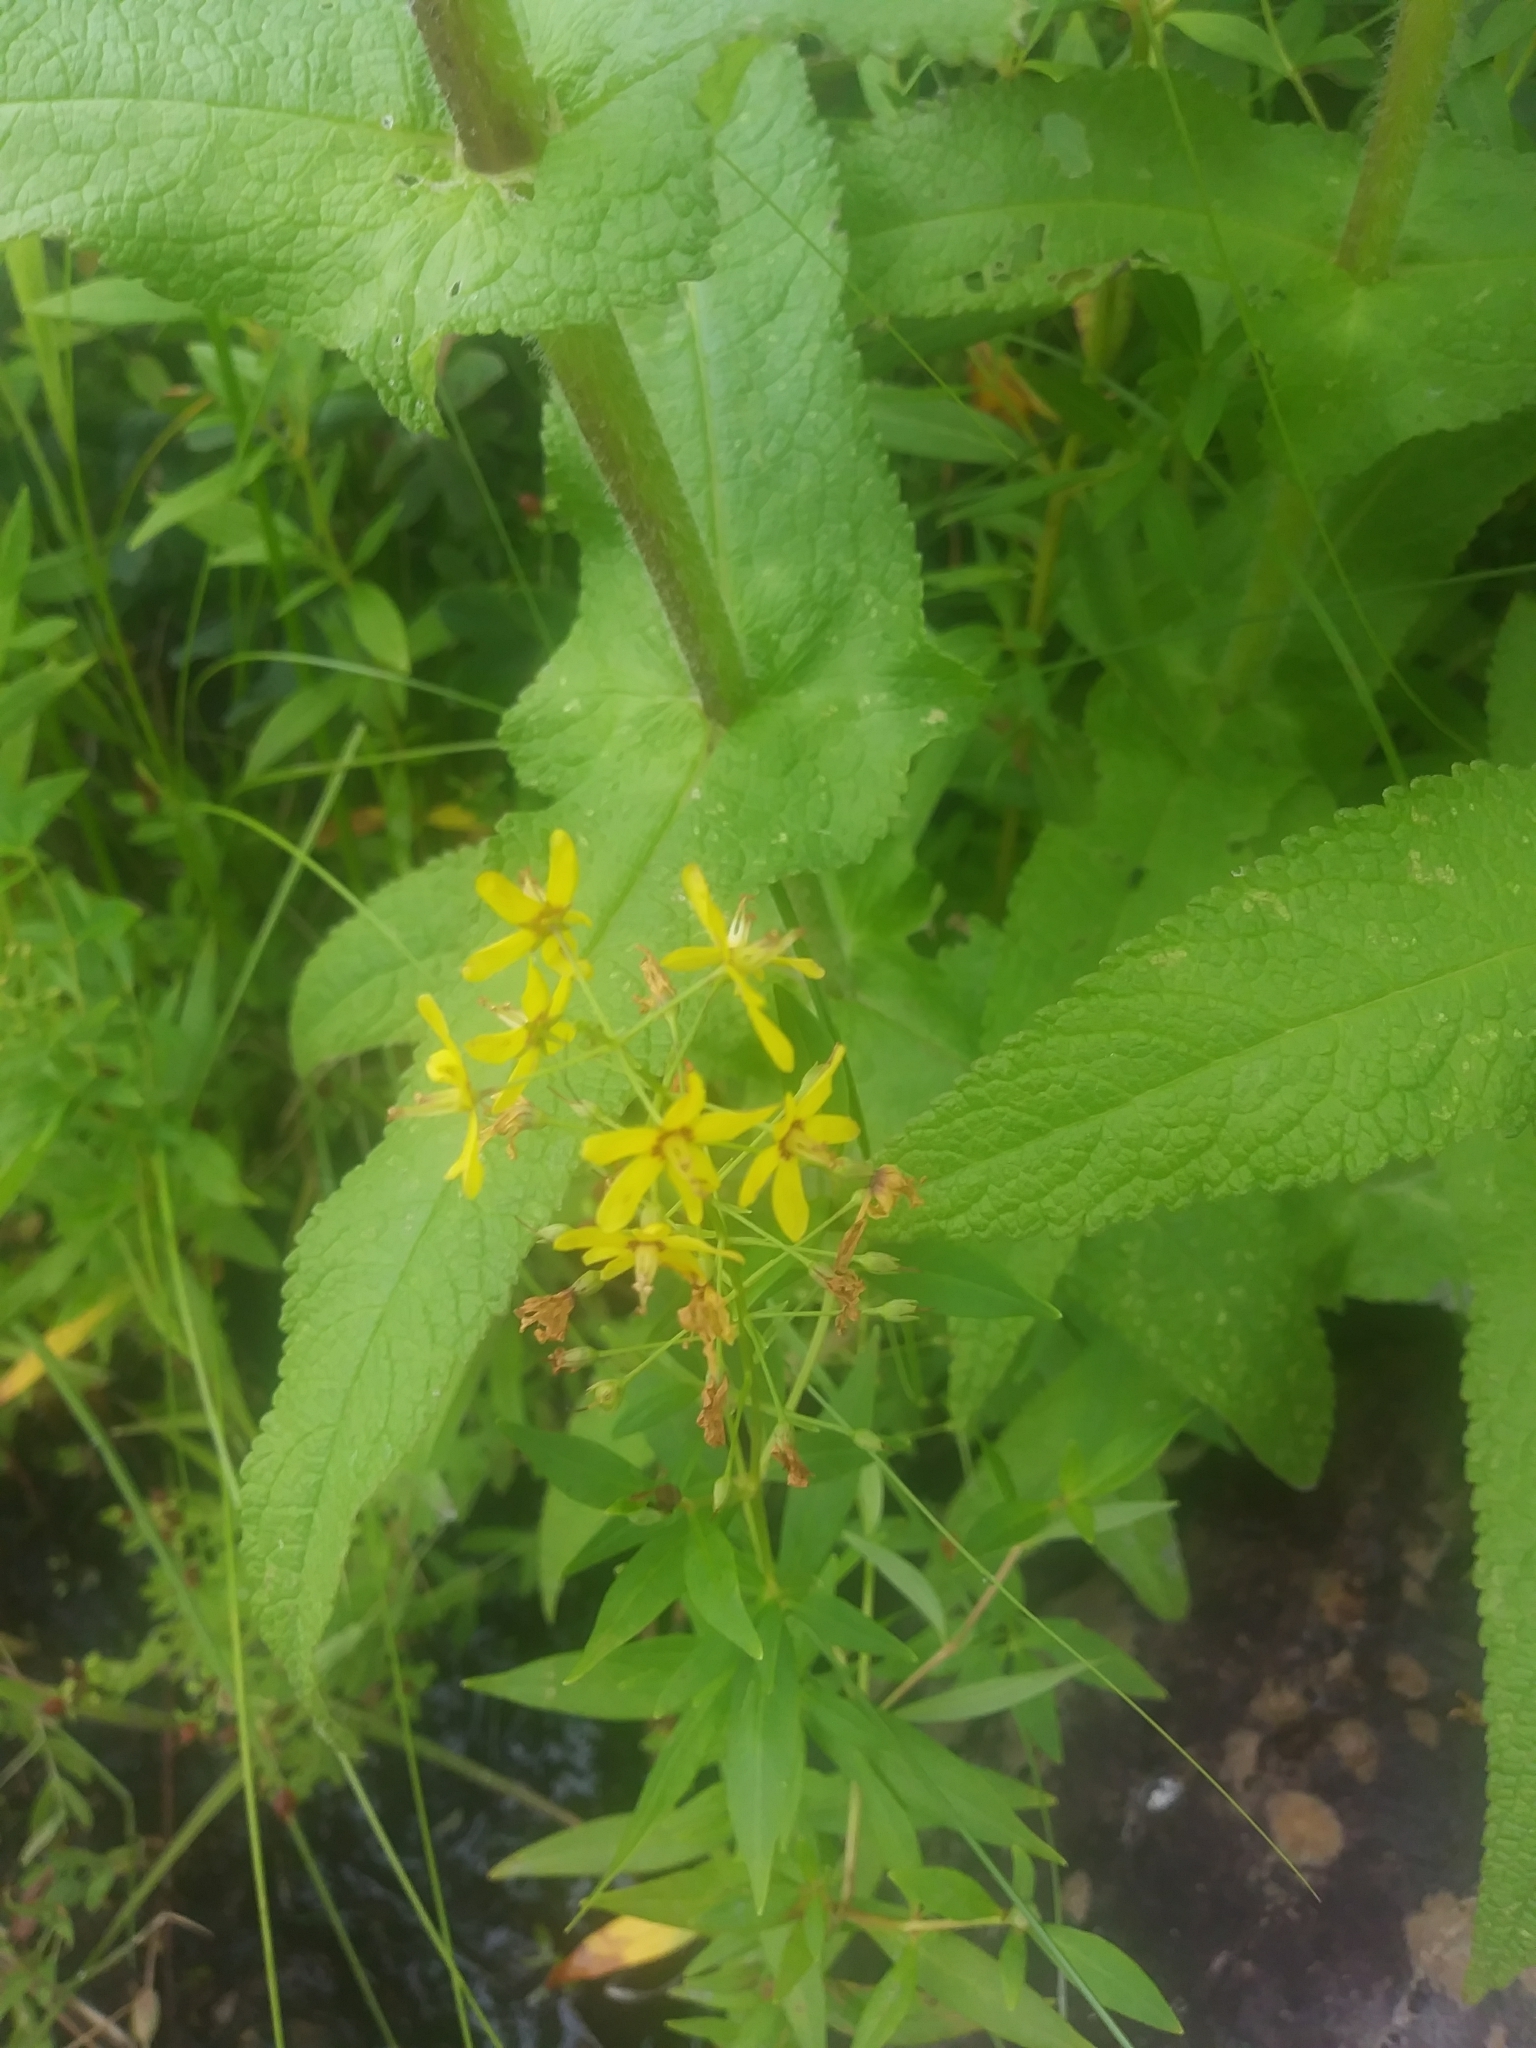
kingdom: Plantae
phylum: Tracheophyta
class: Magnoliopsida
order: Ericales
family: Primulaceae
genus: Lysimachia
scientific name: Lysimachia terrestris
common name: Lake loosestrife
